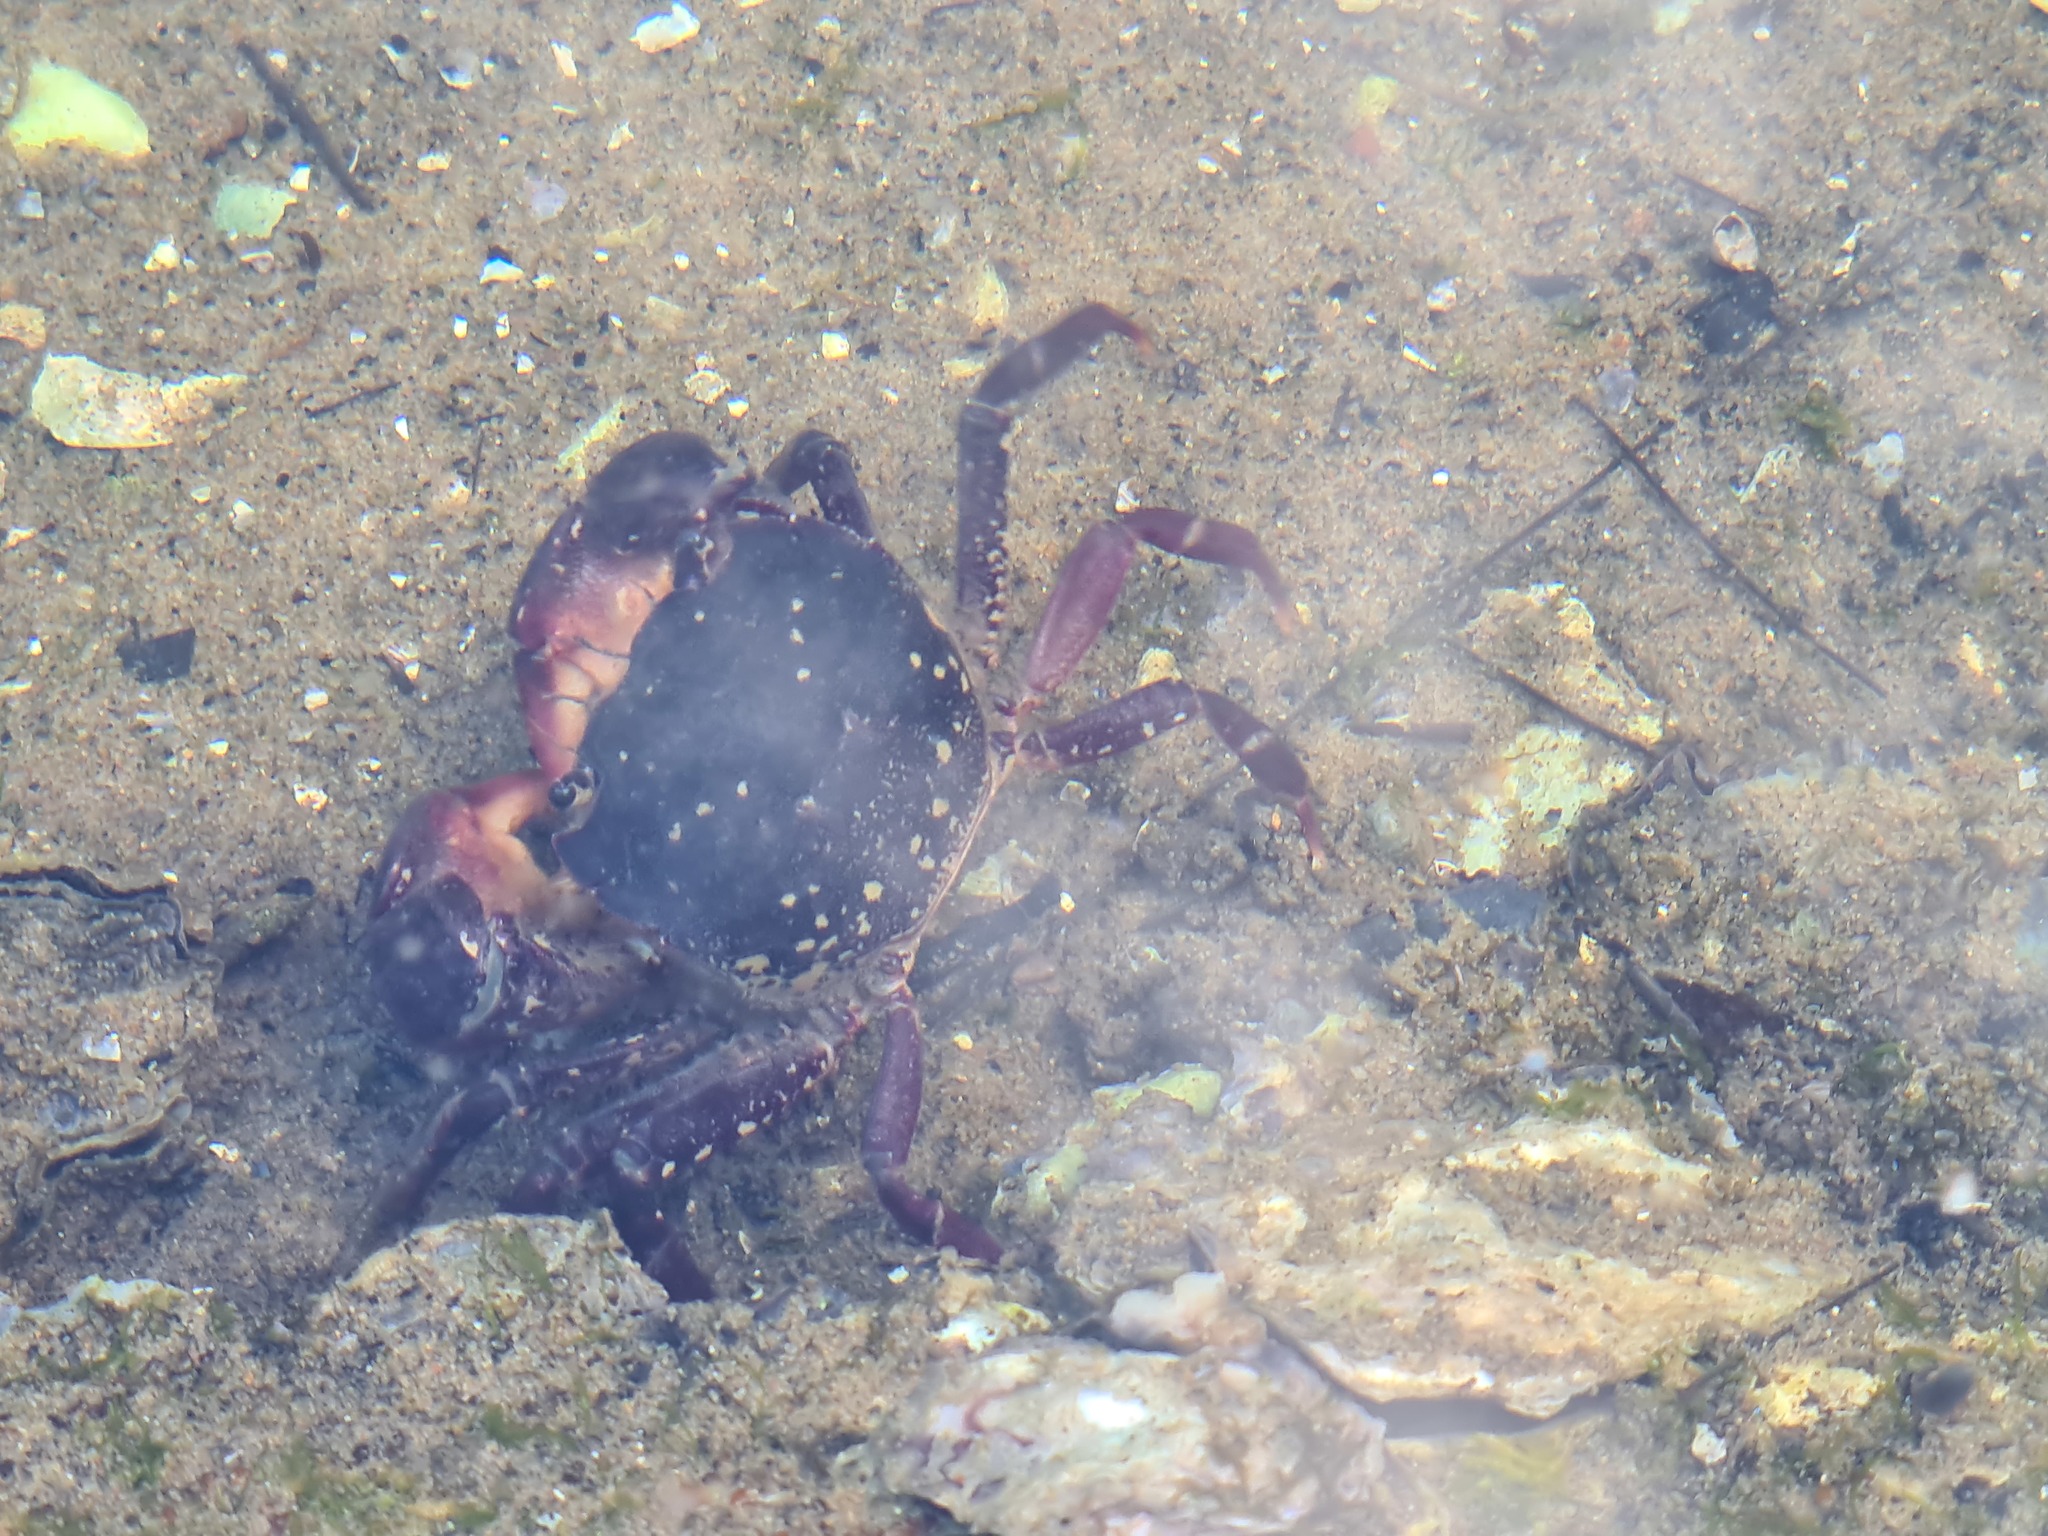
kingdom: Animalia
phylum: Arthropoda
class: Malacostraca
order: Decapoda
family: Varunidae
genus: Paragrapsus
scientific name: Paragrapsus laevis
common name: Smooth shore crab
